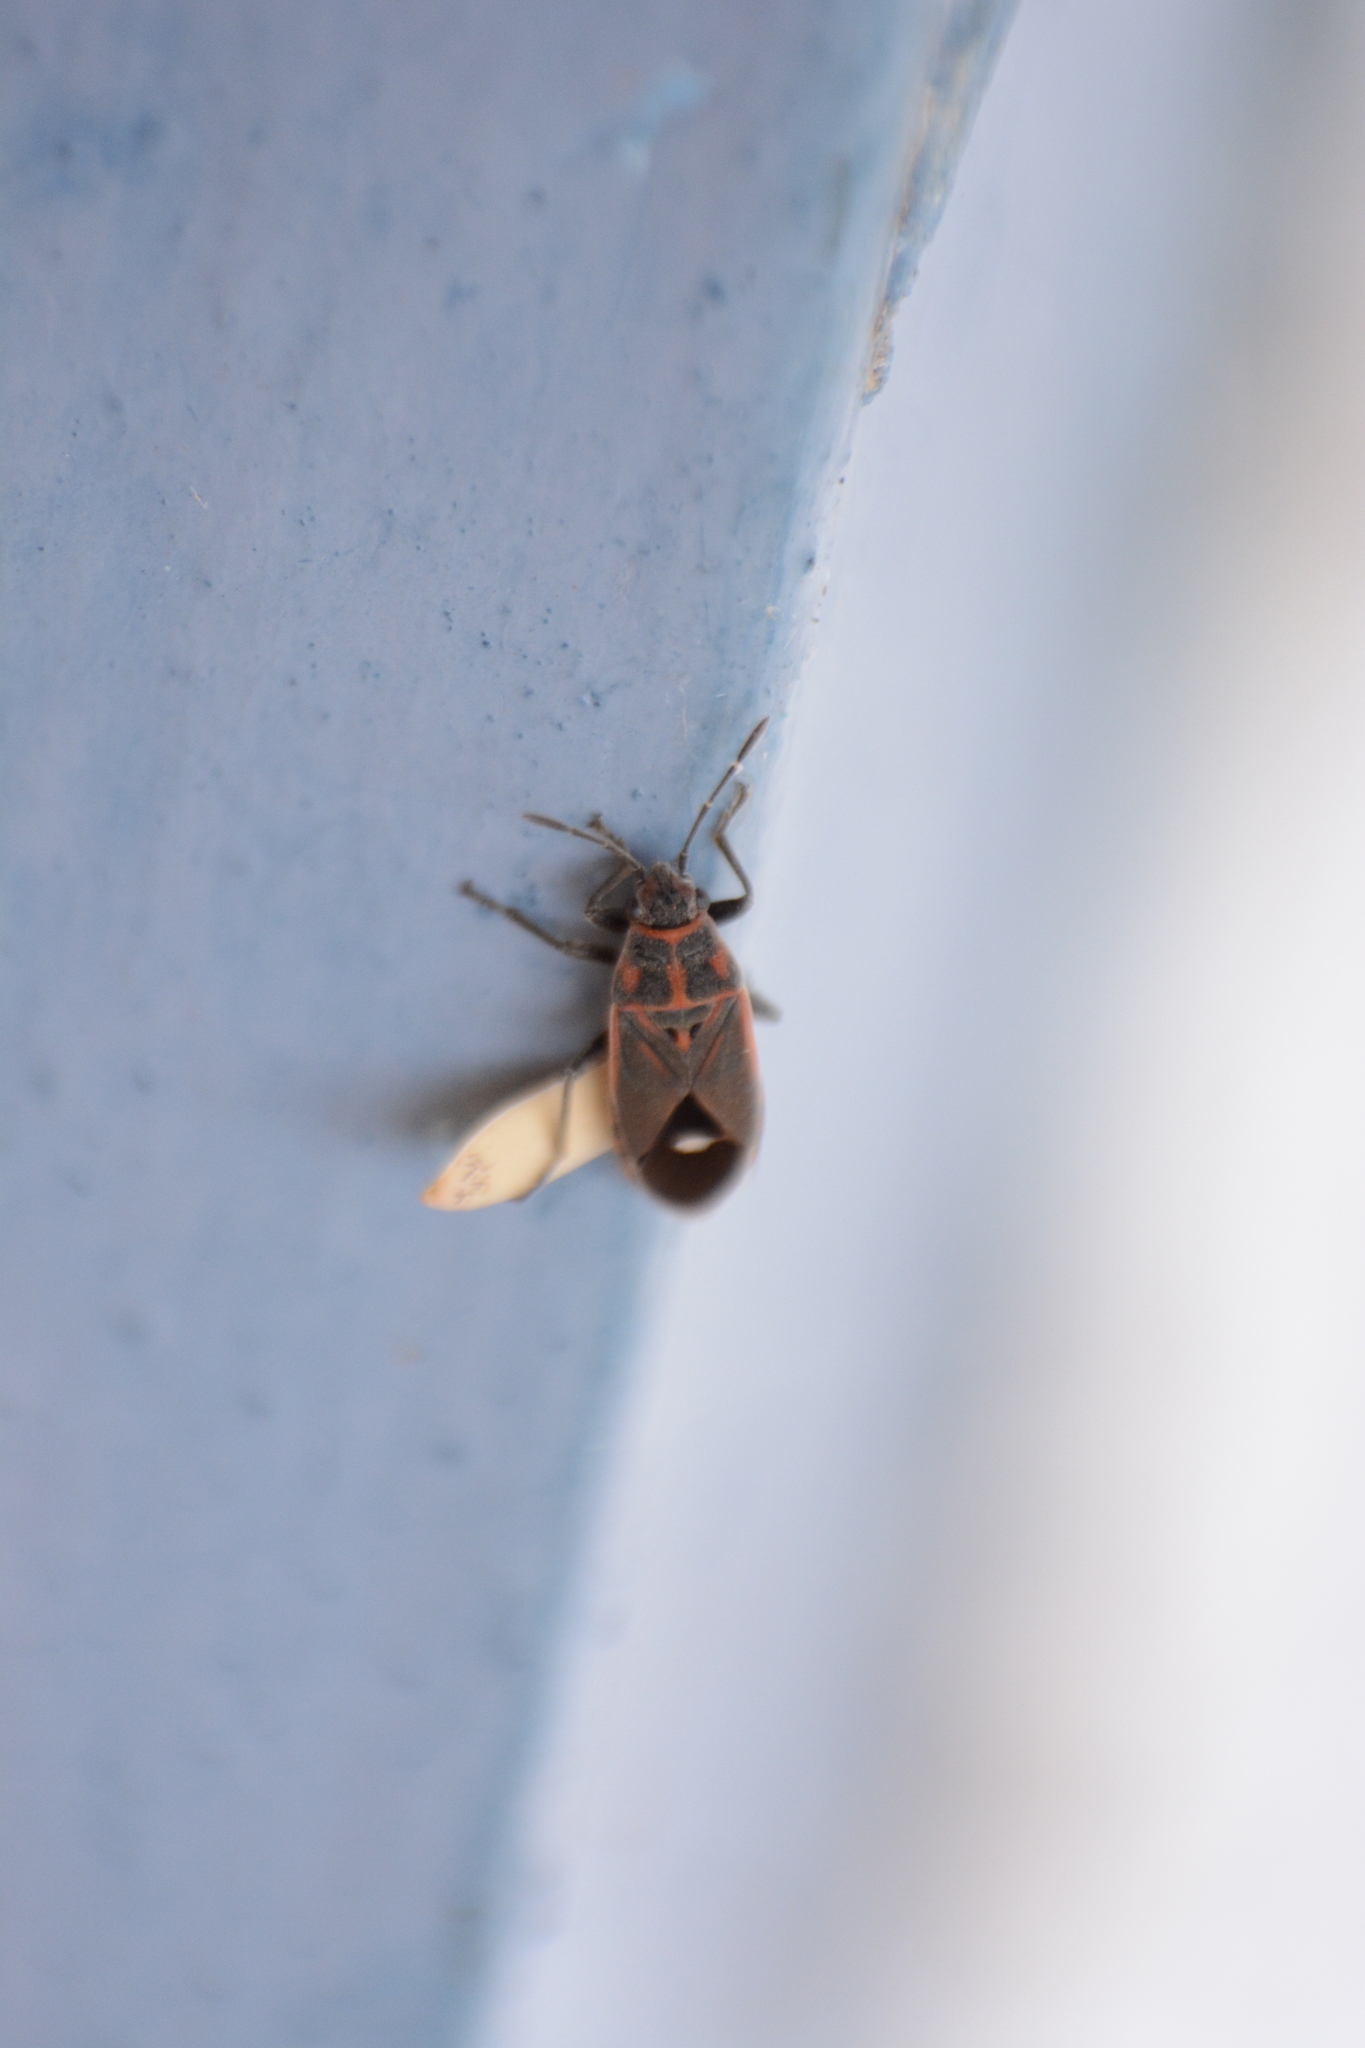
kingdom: Animalia
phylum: Arthropoda
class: Insecta
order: Hemiptera
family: Lygaeidae
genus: Aspilocoryphus
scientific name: Aspilocoryphus fasciativentris
